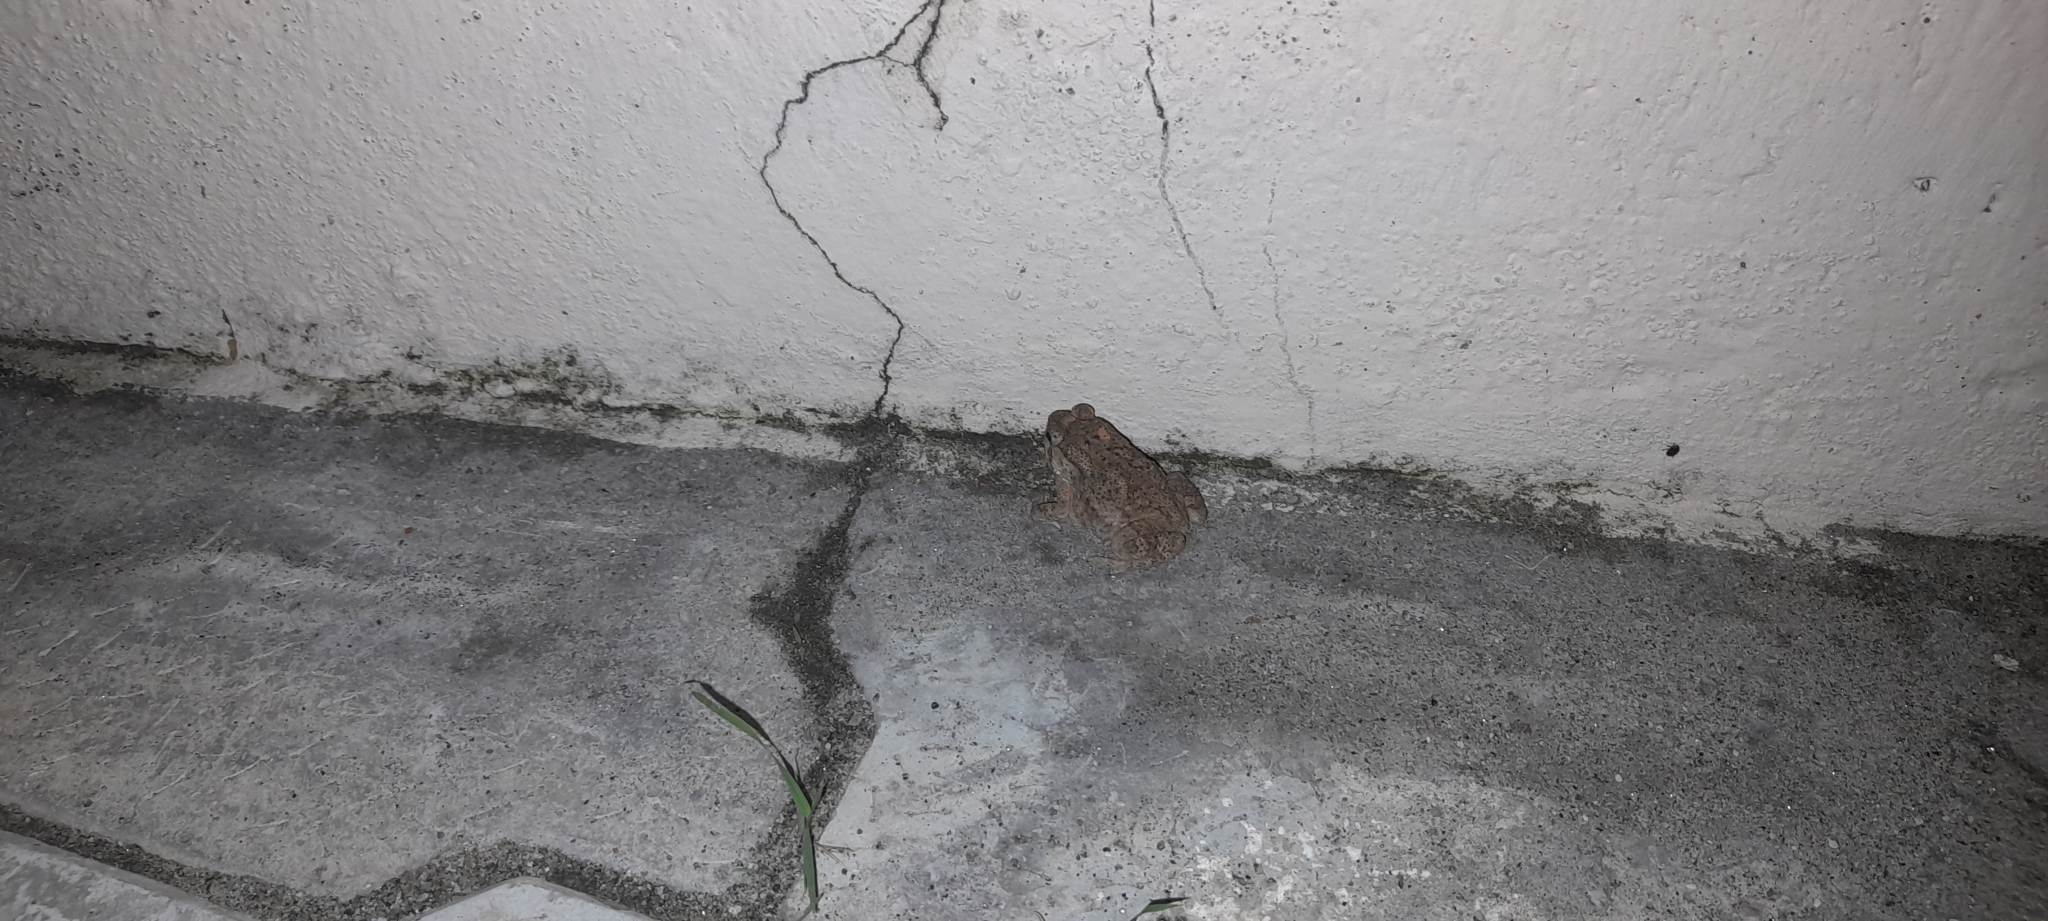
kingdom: Animalia
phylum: Chordata
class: Amphibia
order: Anura
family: Bufonidae
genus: Duttaphrynus
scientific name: Duttaphrynus melanostictus
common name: Common sunda toad
